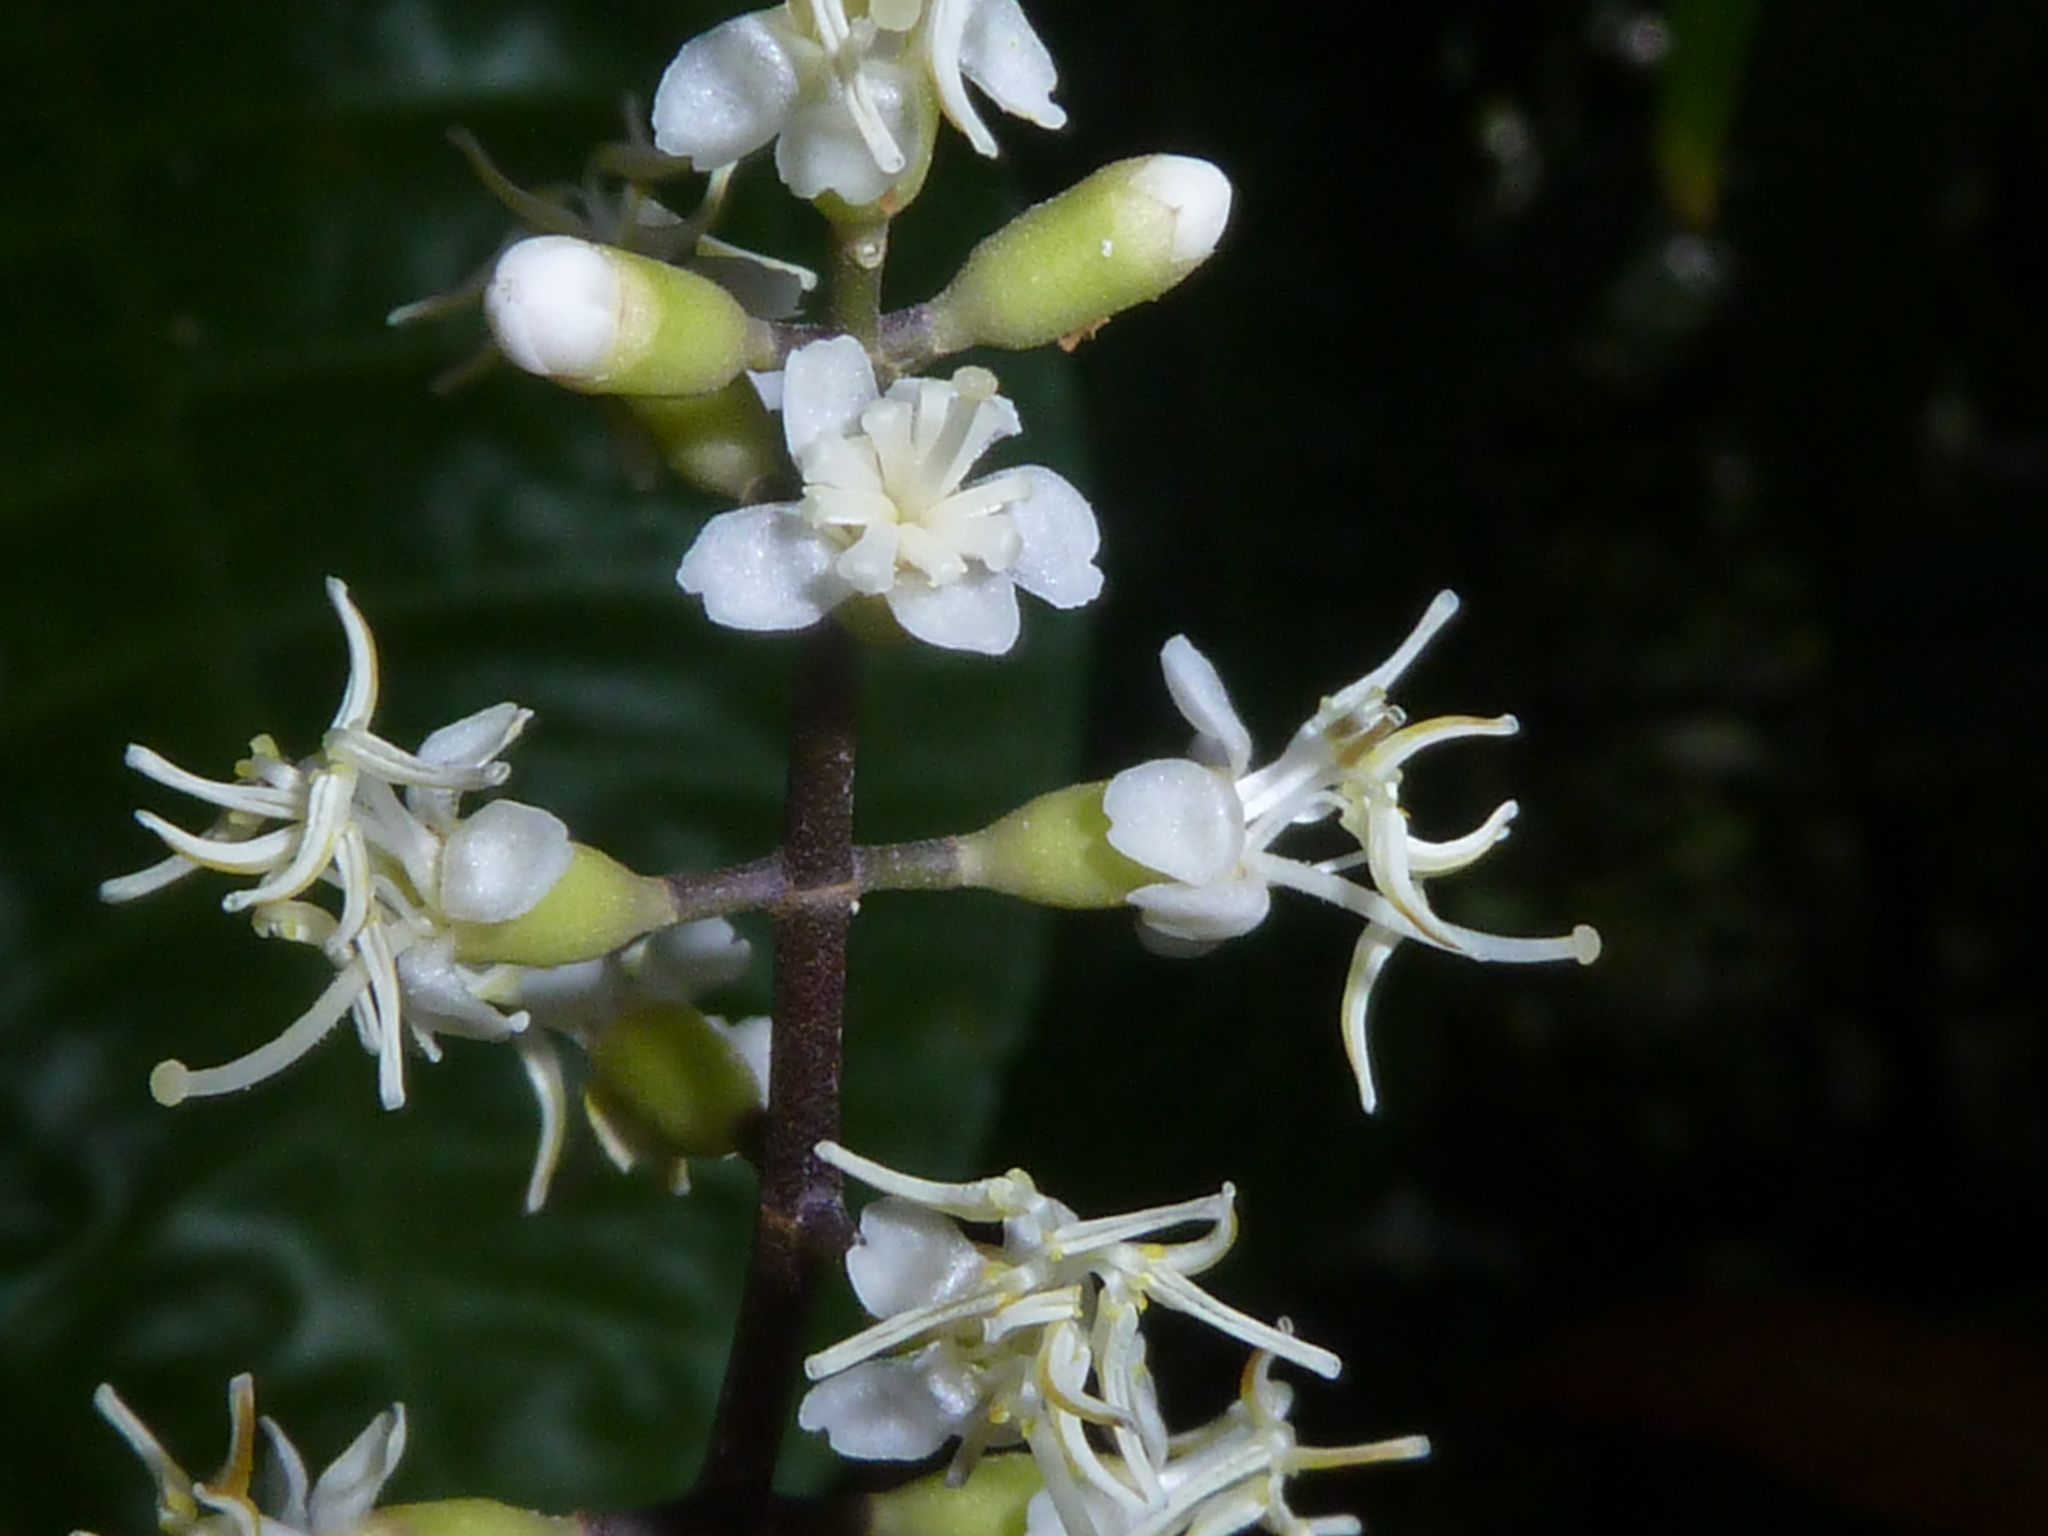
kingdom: Plantae
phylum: Tracheophyta
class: Magnoliopsida
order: Myrtales
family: Melastomataceae
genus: Miconia
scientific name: Miconia gracilis
